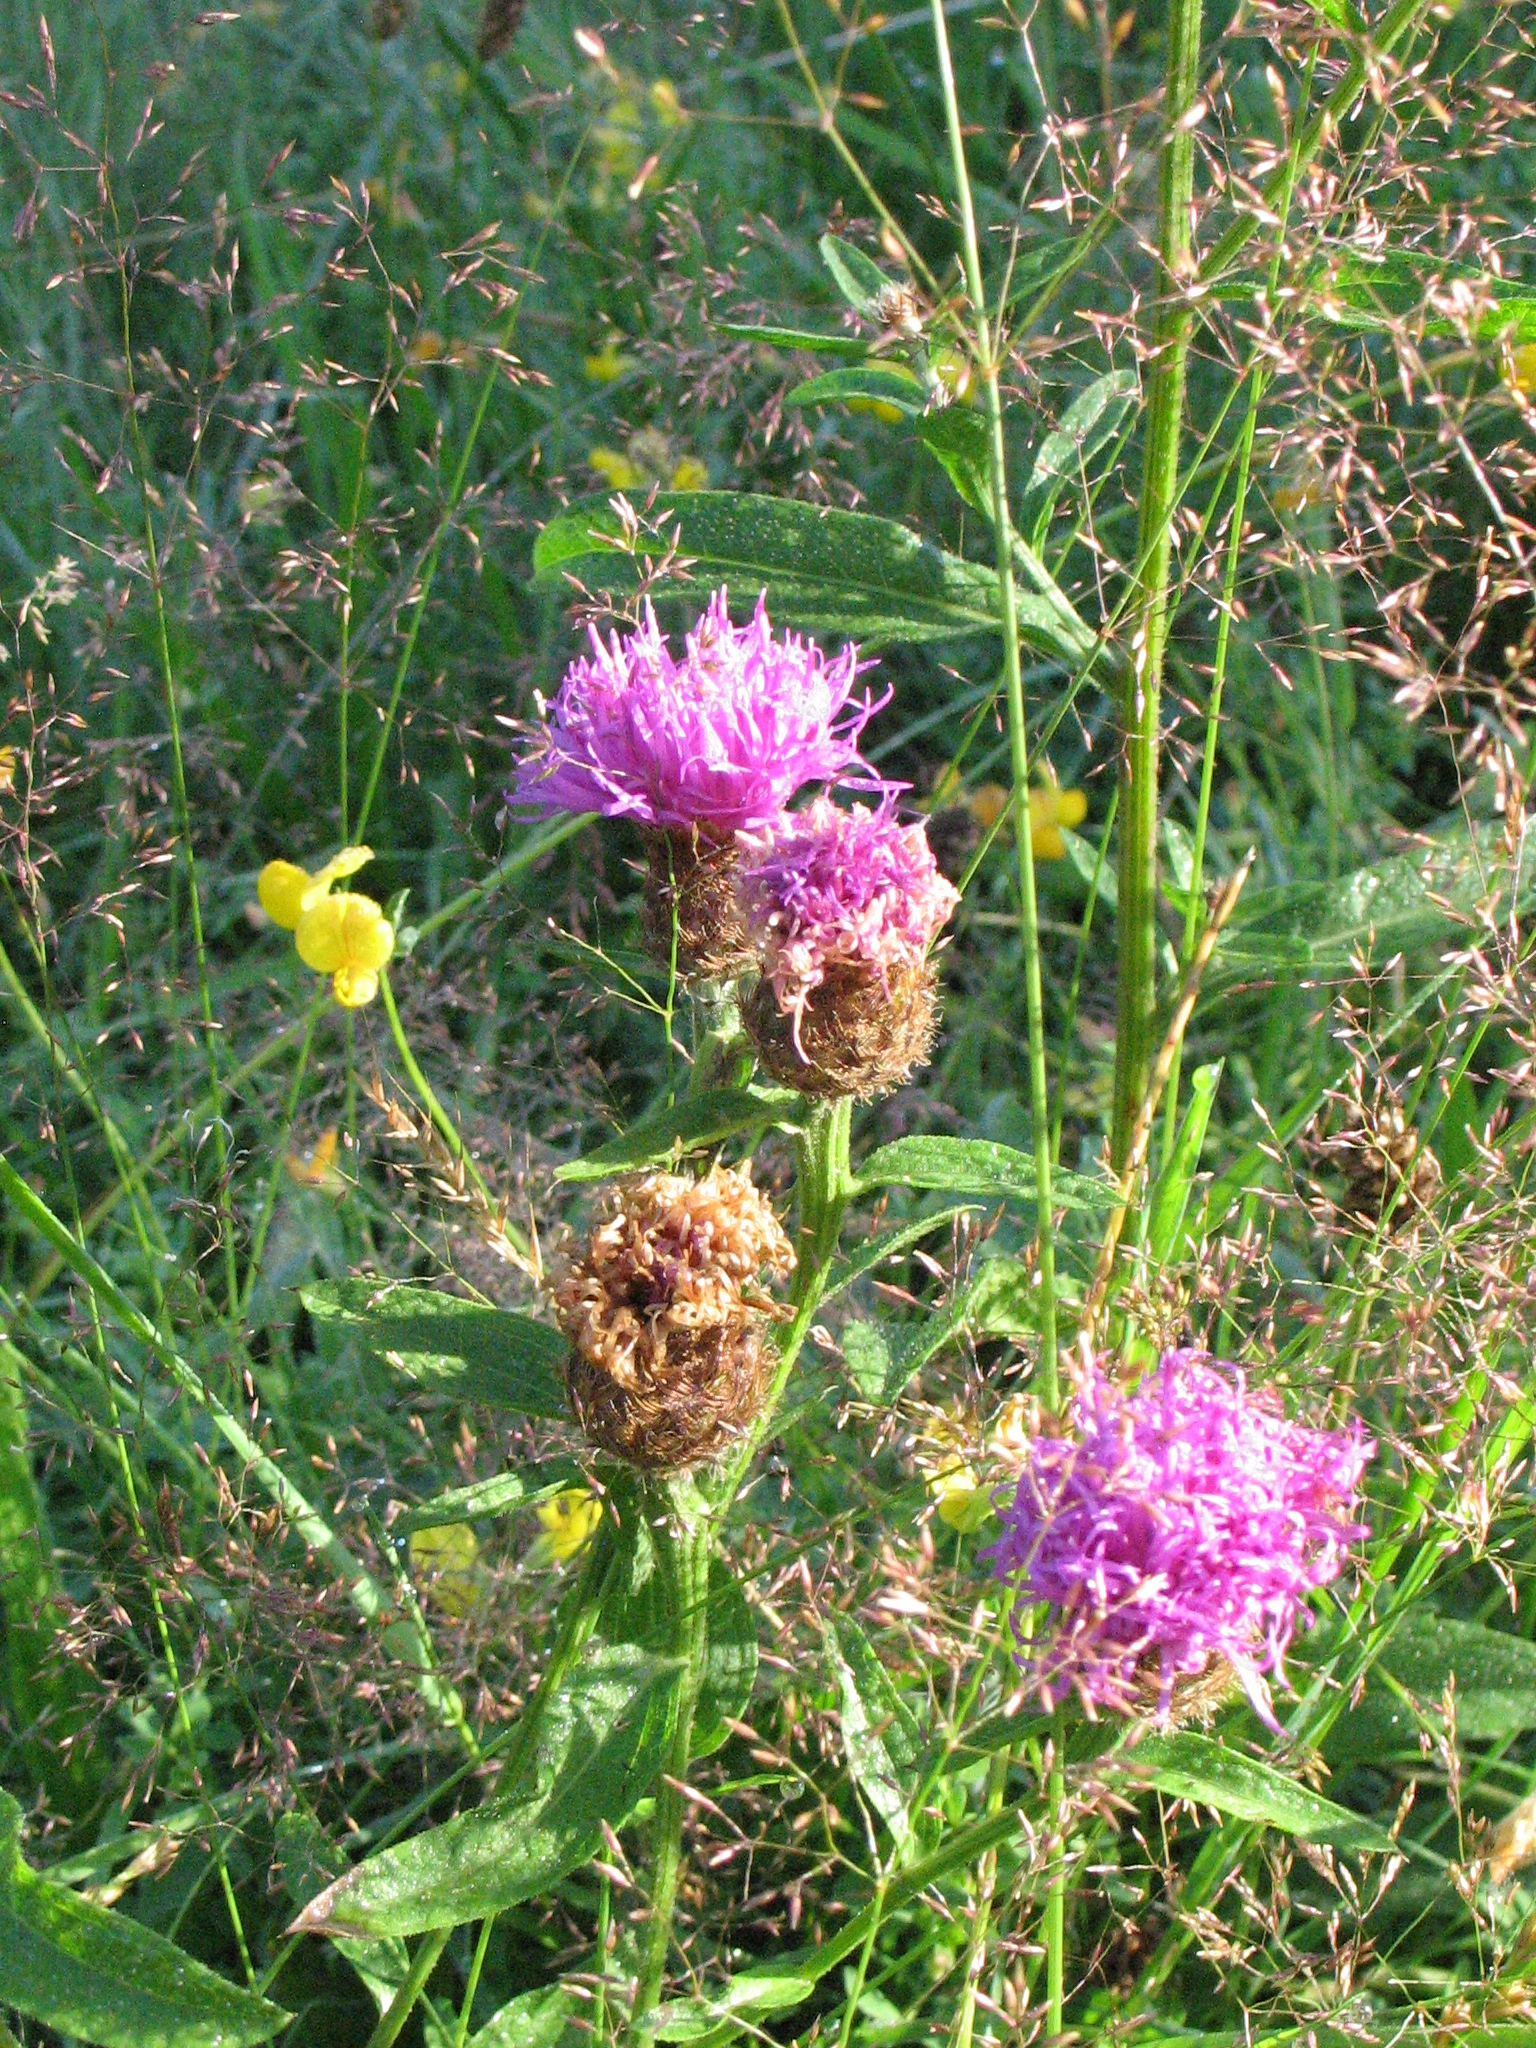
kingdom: Plantae
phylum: Tracheophyta
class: Magnoliopsida
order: Asterales
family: Asteraceae
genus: Centaurea
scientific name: Centaurea nigra
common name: Lesser knapweed
